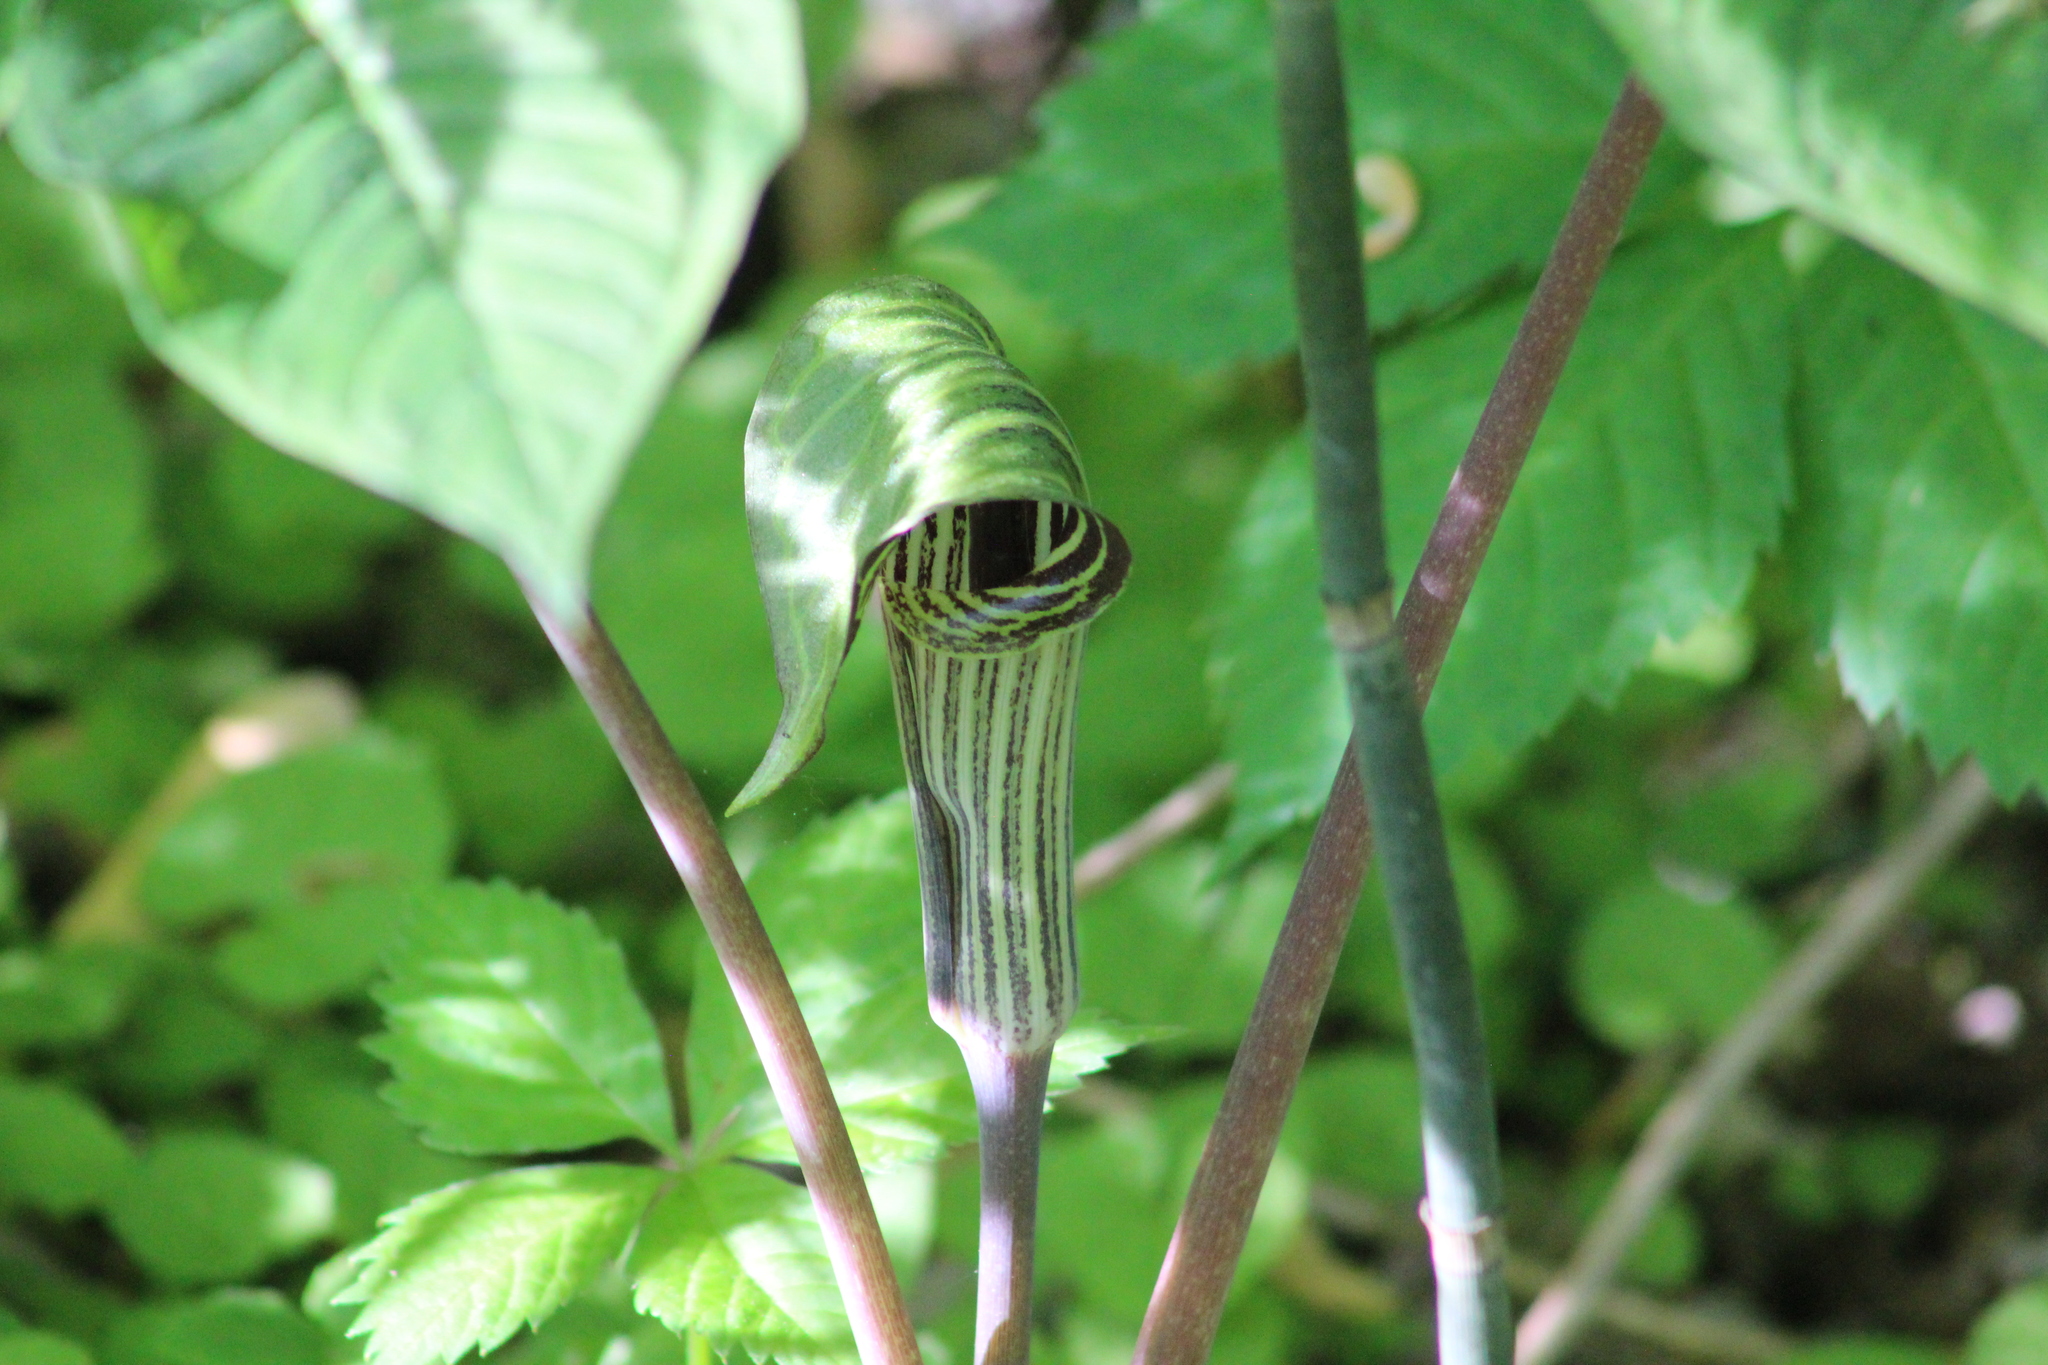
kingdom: Plantae
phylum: Tracheophyta
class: Liliopsida
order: Alismatales
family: Araceae
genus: Arisaema
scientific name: Arisaema triphyllum
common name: Jack-in-the-pulpit
